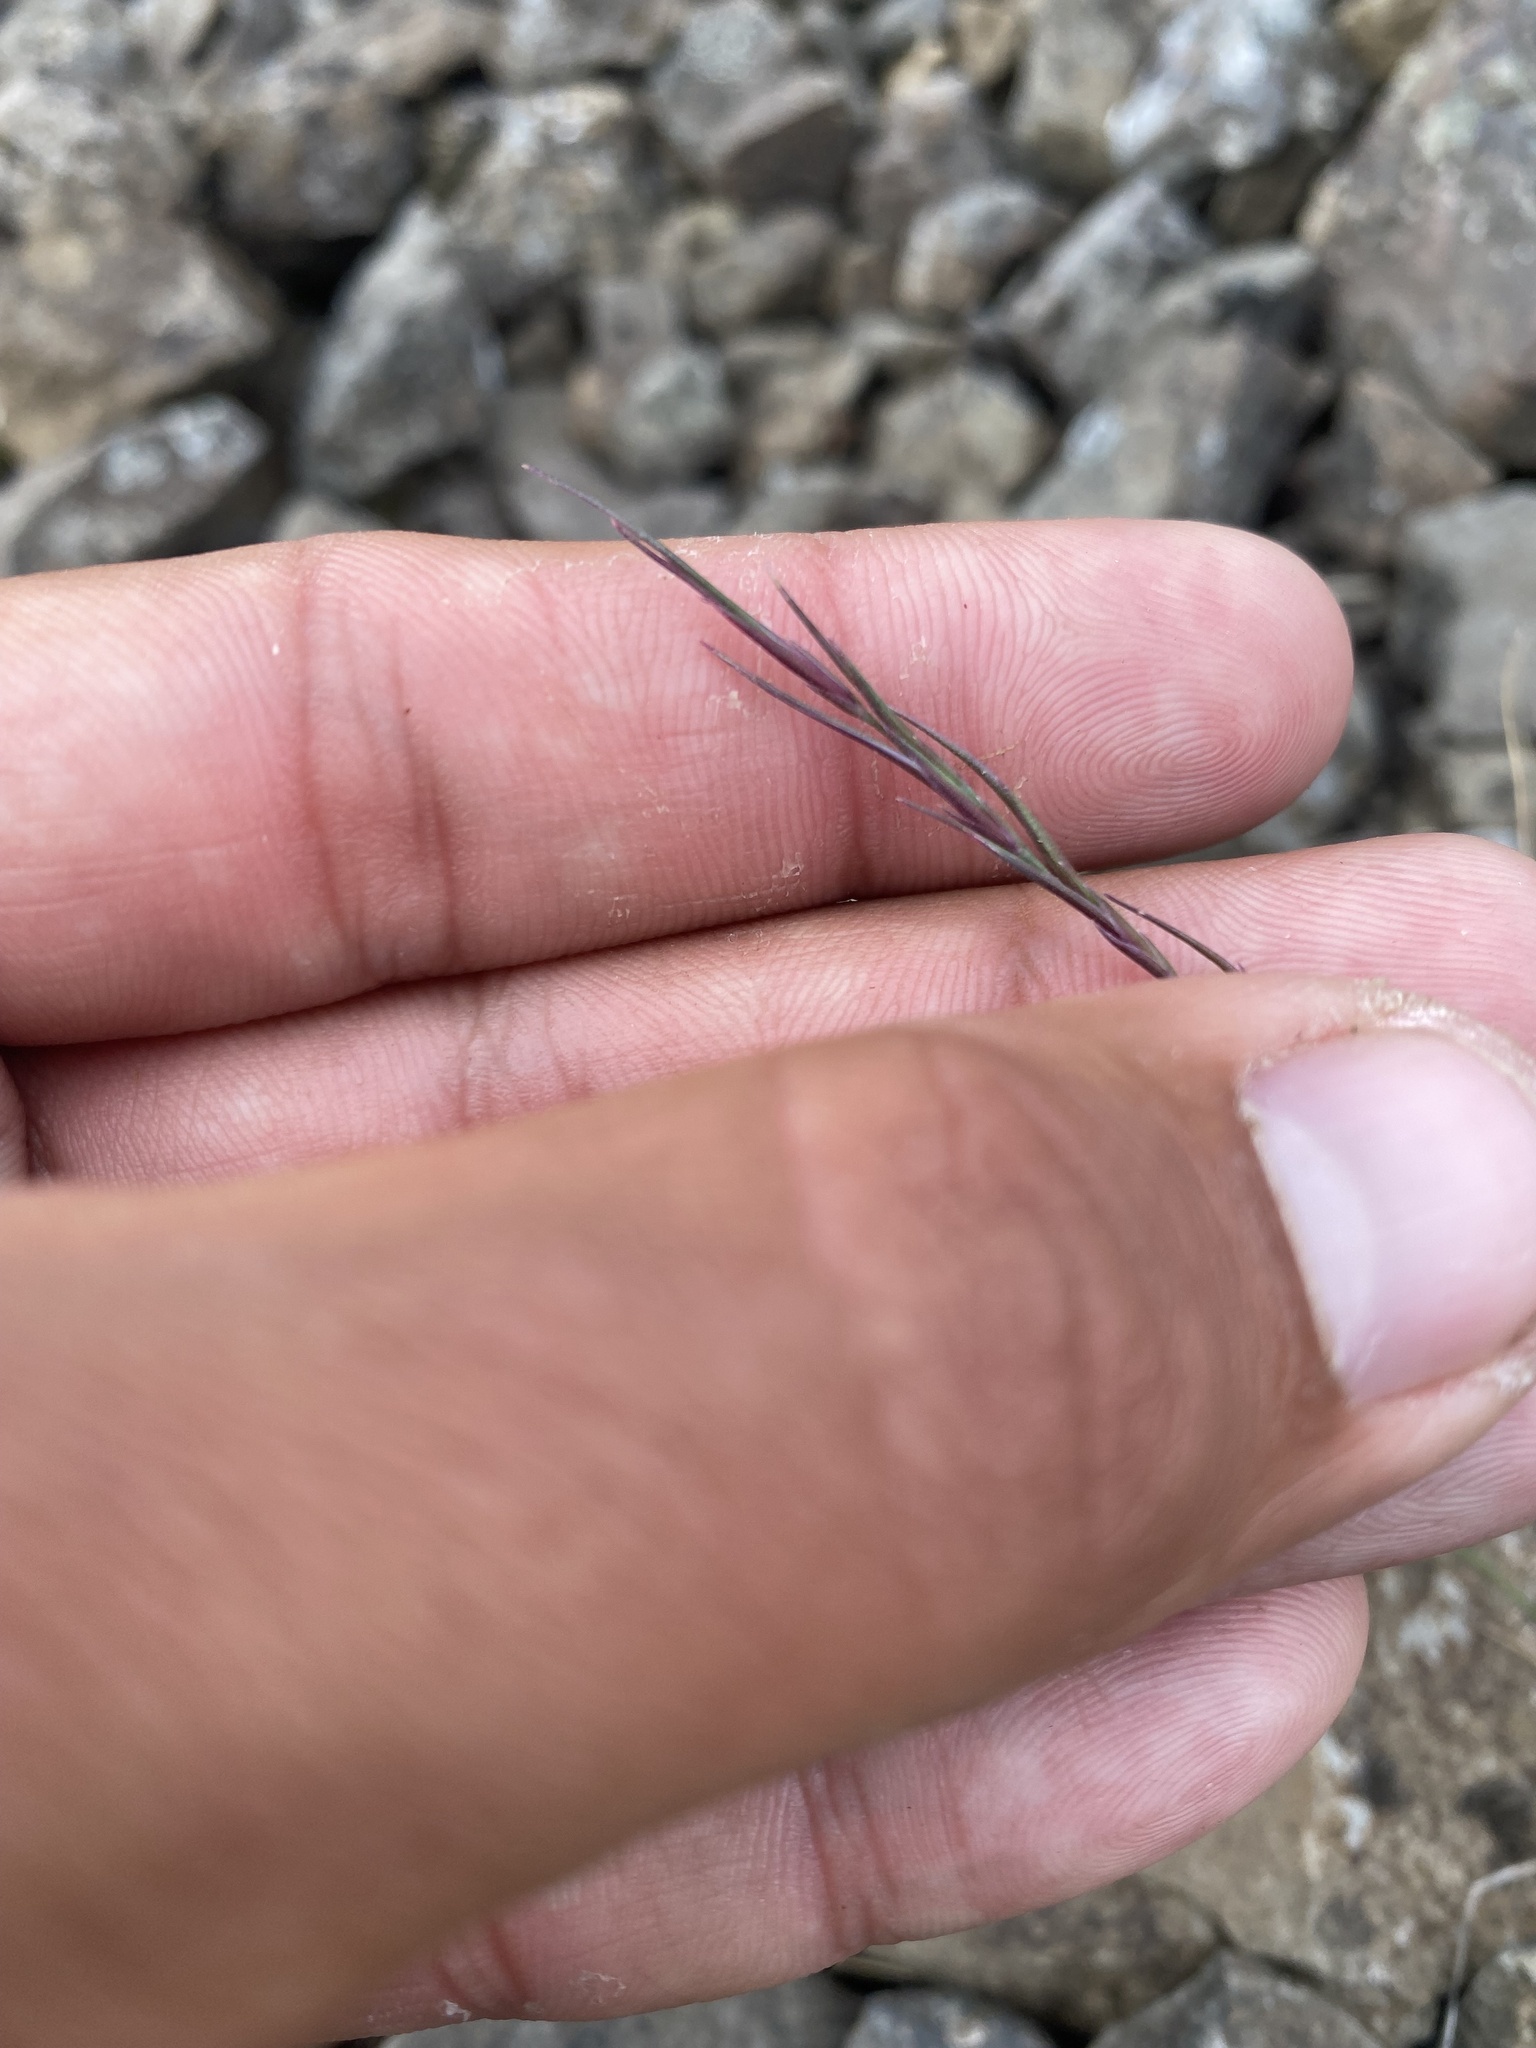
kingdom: Plantae
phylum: Tracheophyta
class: Liliopsida
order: Poales
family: Poaceae
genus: Festuca
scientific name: Festuca viviparoidea
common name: Northern fescue
